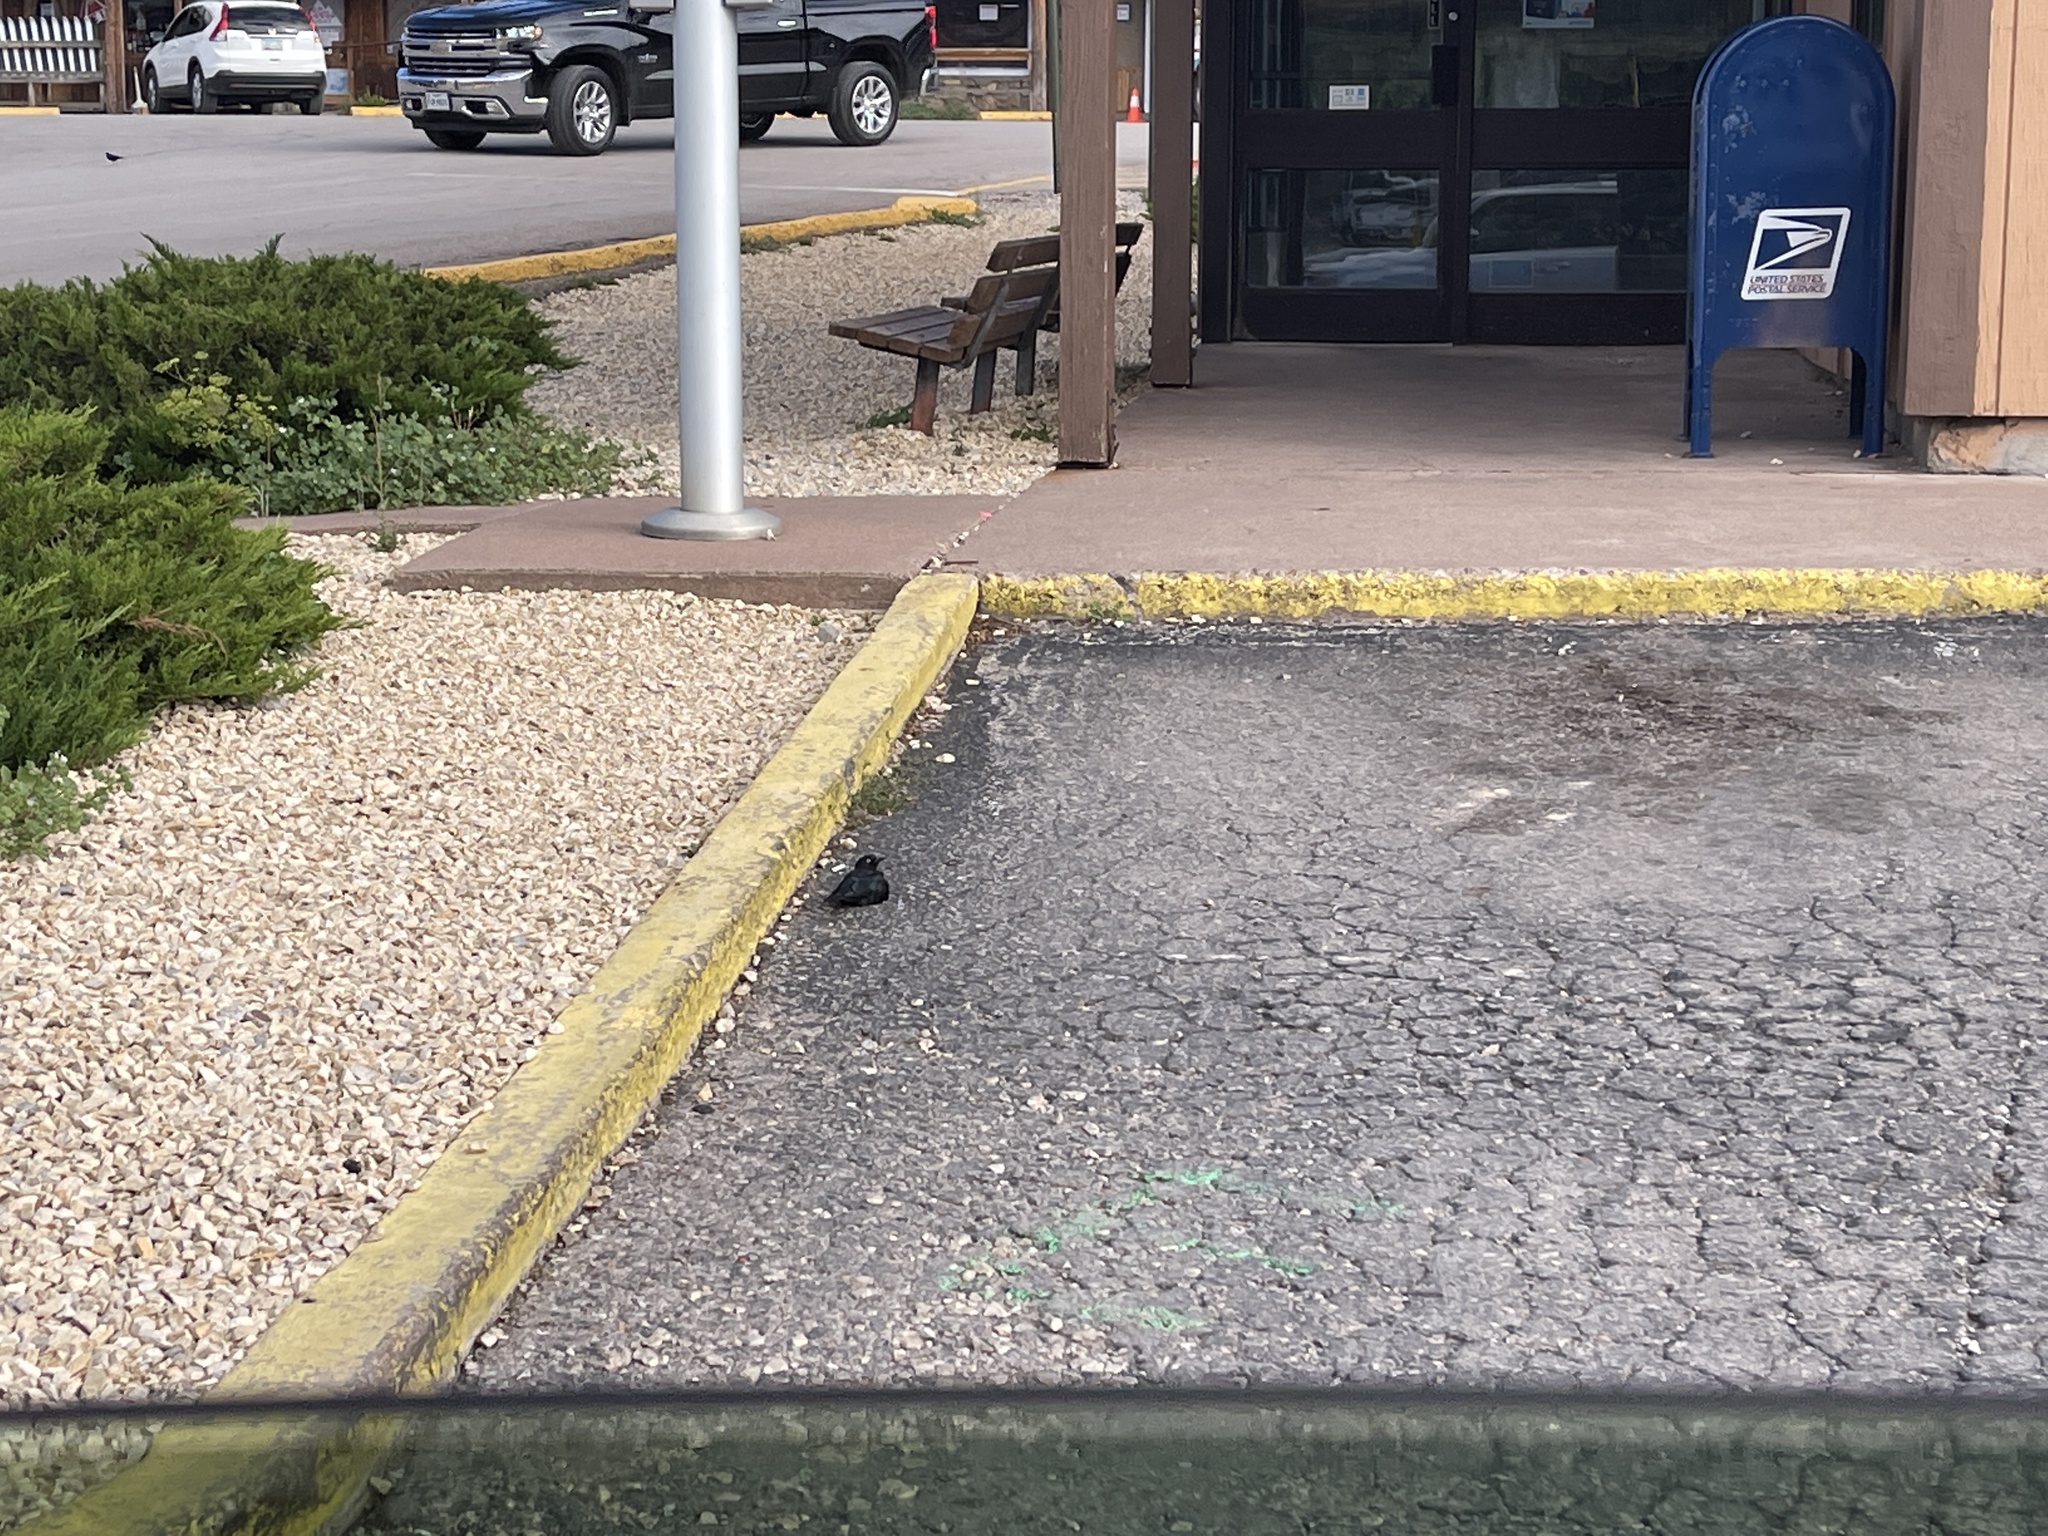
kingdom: Animalia
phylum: Chordata
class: Aves
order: Passeriformes
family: Icteridae
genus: Euphagus
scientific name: Euphagus cyanocephalus
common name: Brewer's blackbird
